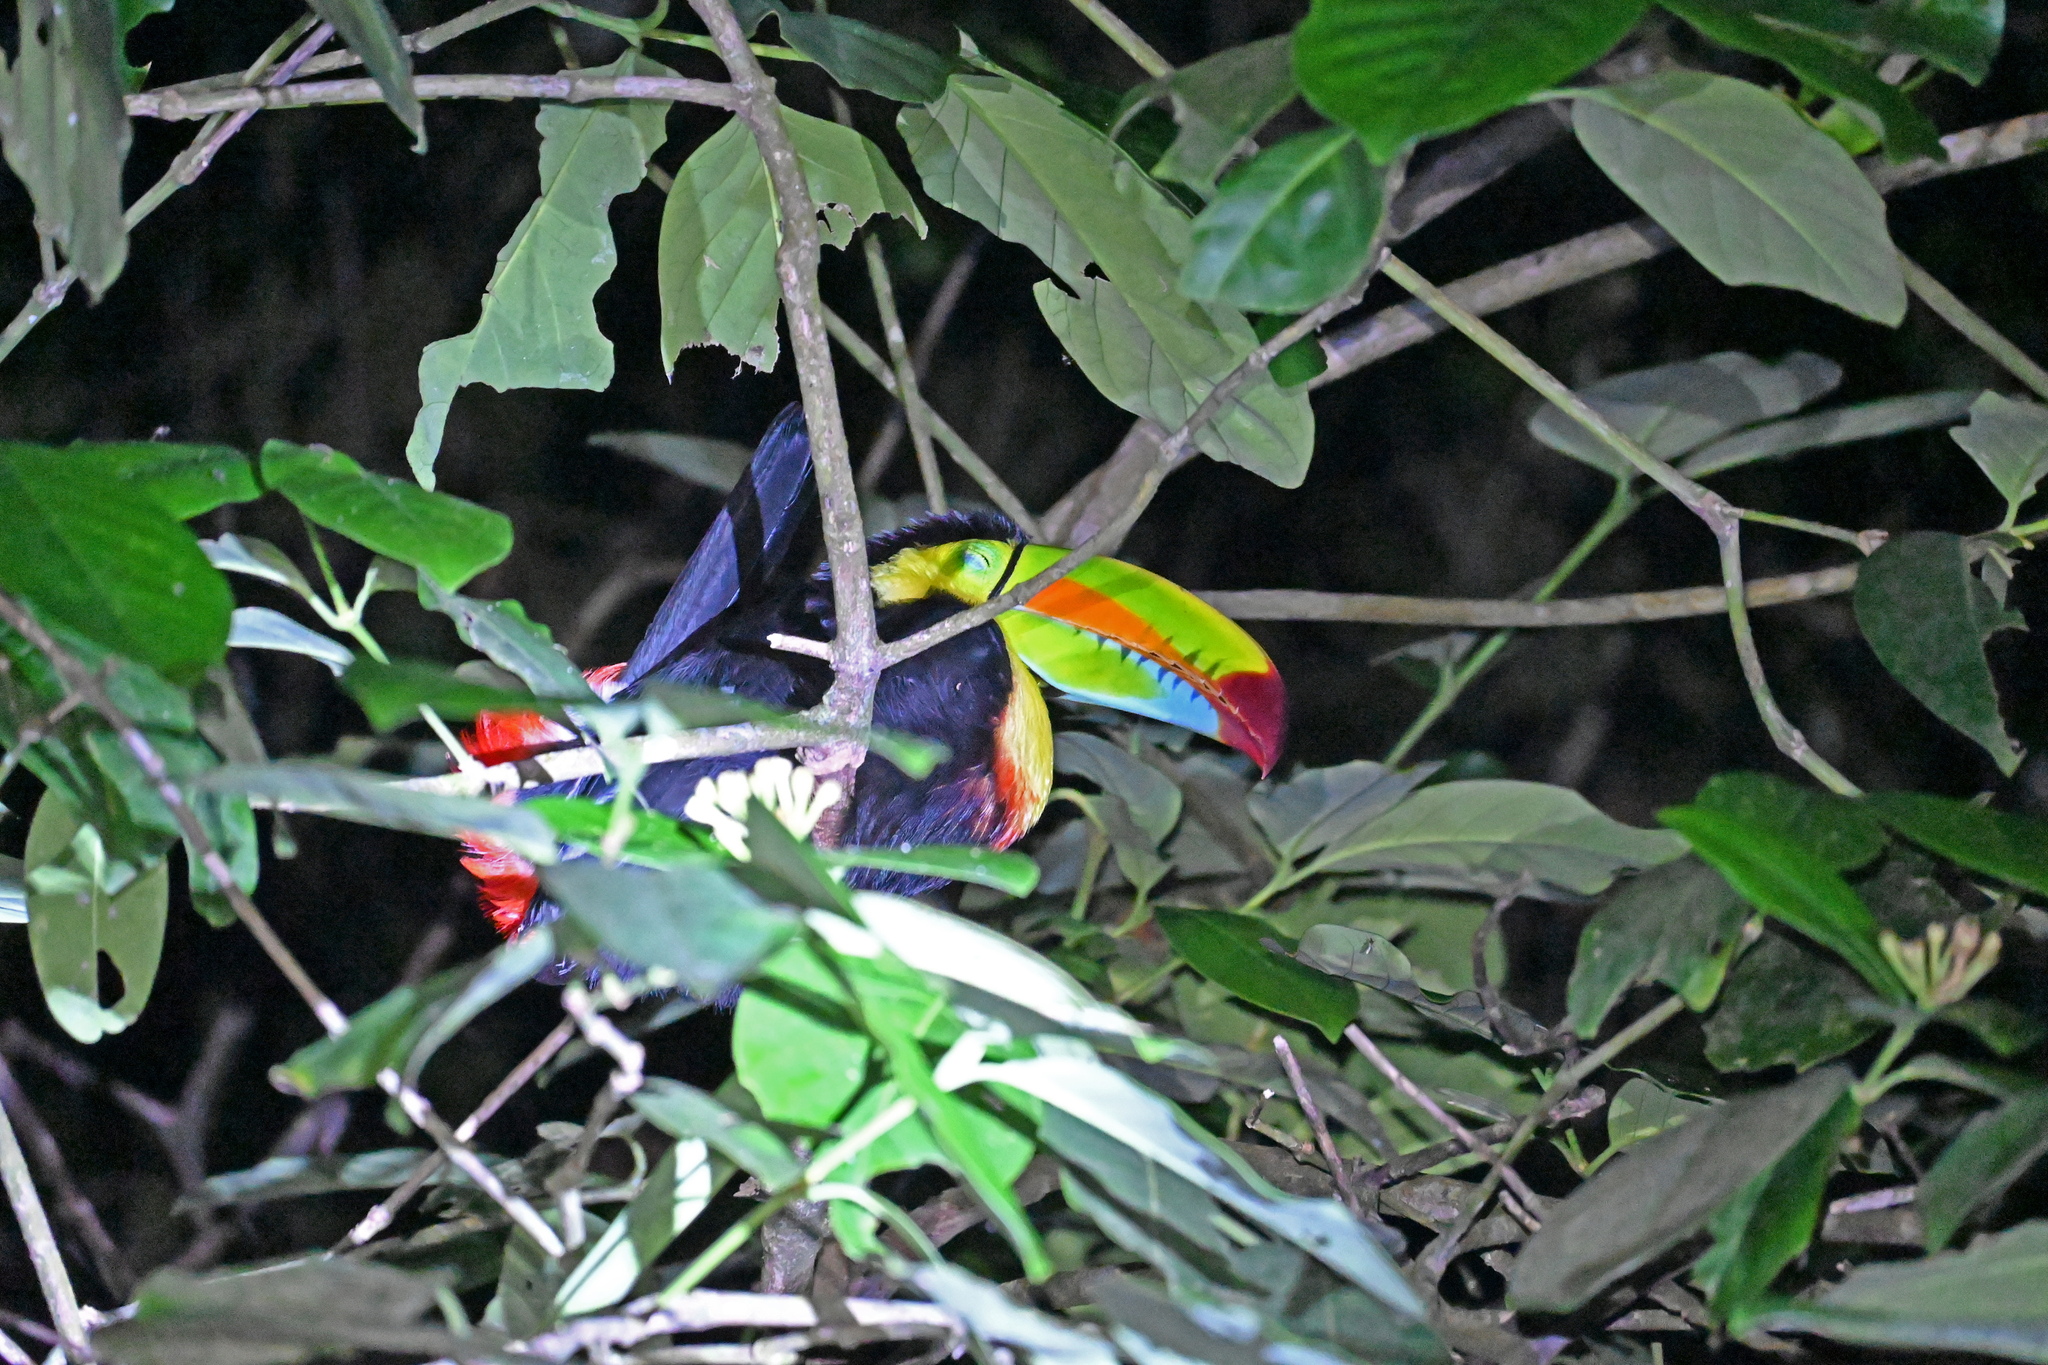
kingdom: Animalia
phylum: Chordata
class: Aves
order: Piciformes
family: Ramphastidae
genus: Ramphastos
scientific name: Ramphastos sulfuratus
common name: Keel-billed toucan
